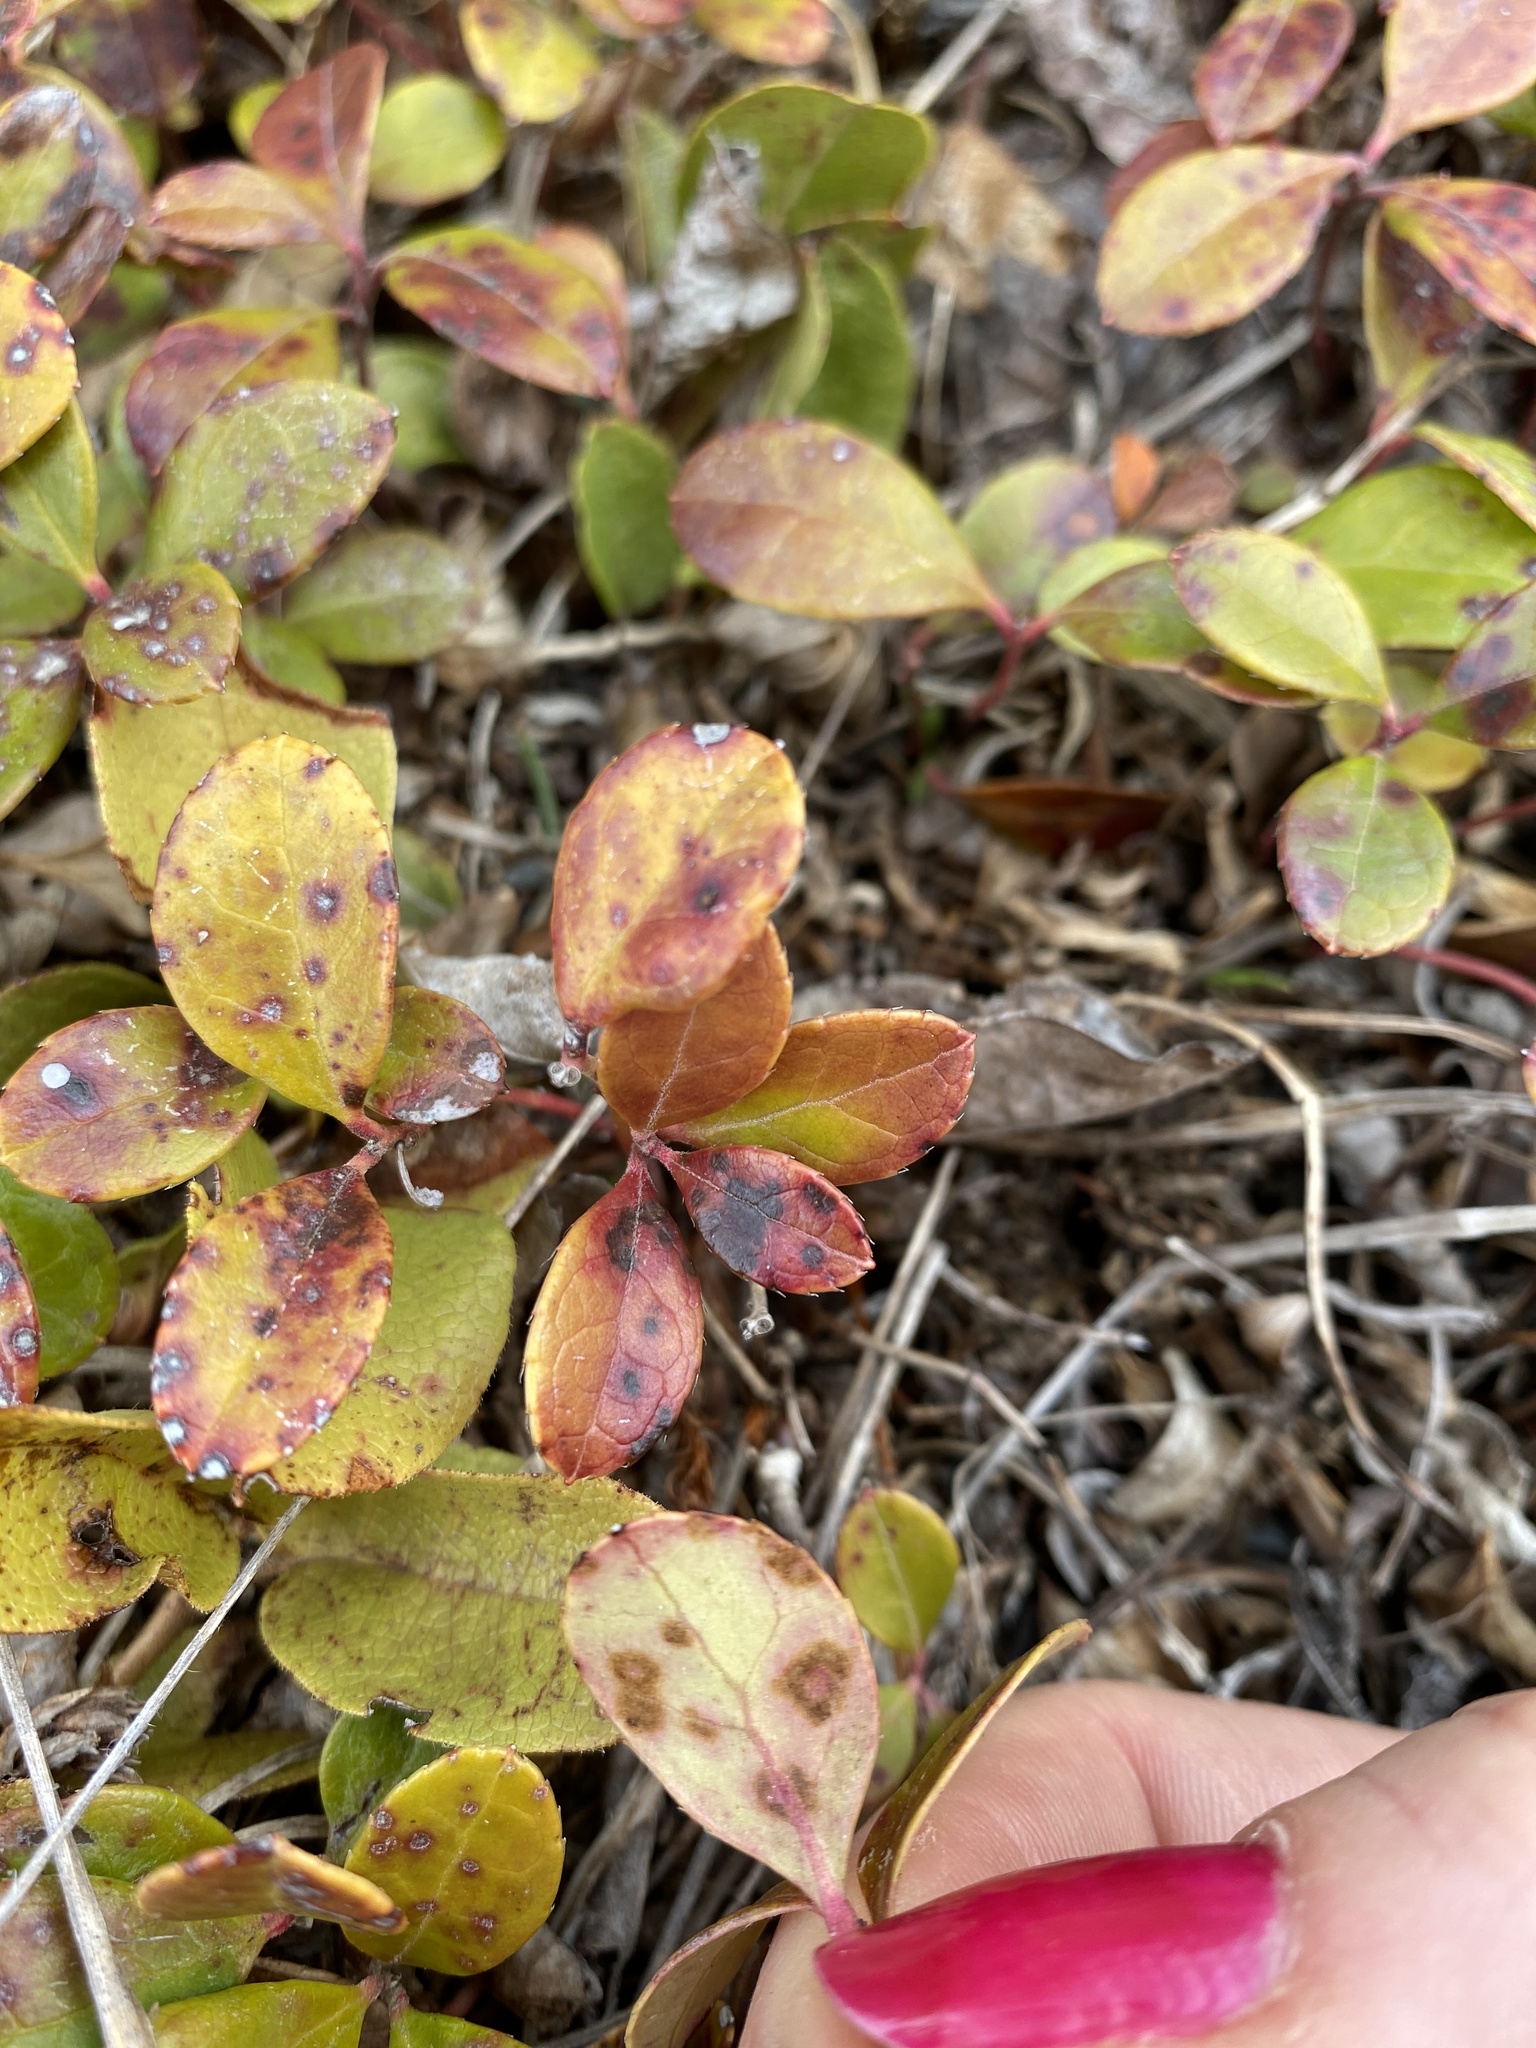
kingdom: Plantae
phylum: Tracheophyta
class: Magnoliopsida
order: Ericales
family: Ericaceae
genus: Gaultheria
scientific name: Gaultheria procumbens
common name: Checkerberry
